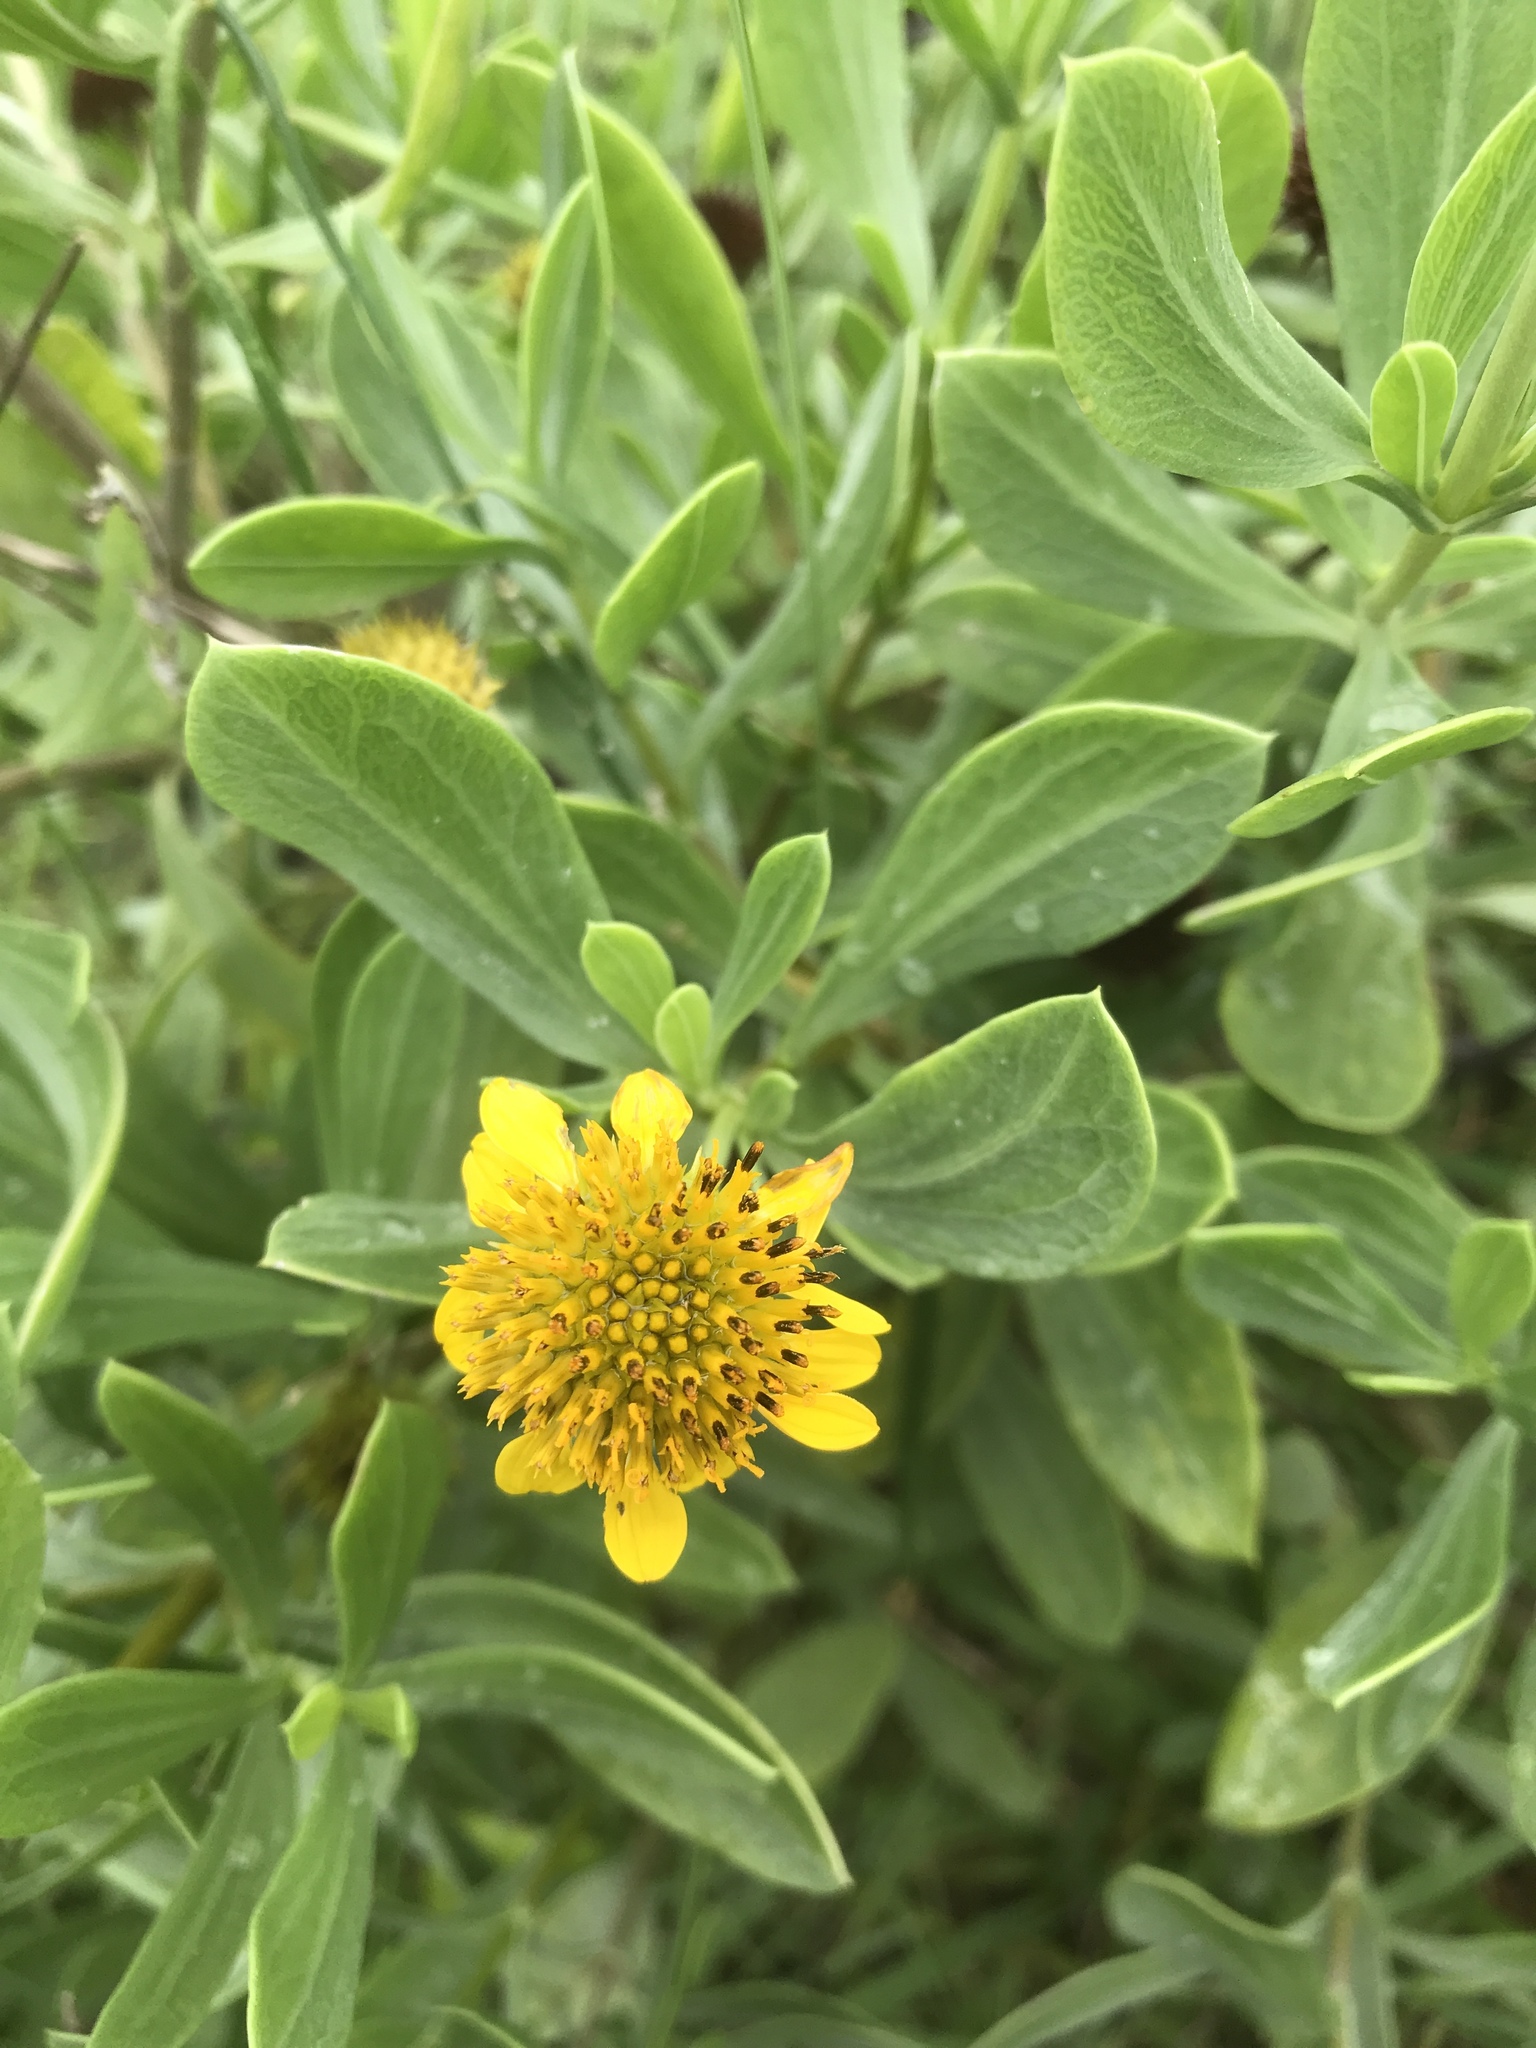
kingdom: Plantae
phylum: Tracheophyta
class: Magnoliopsida
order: Asterales
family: Asteraceae
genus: Borrichia
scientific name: Borrichia frutescens
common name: Sea oxeye
